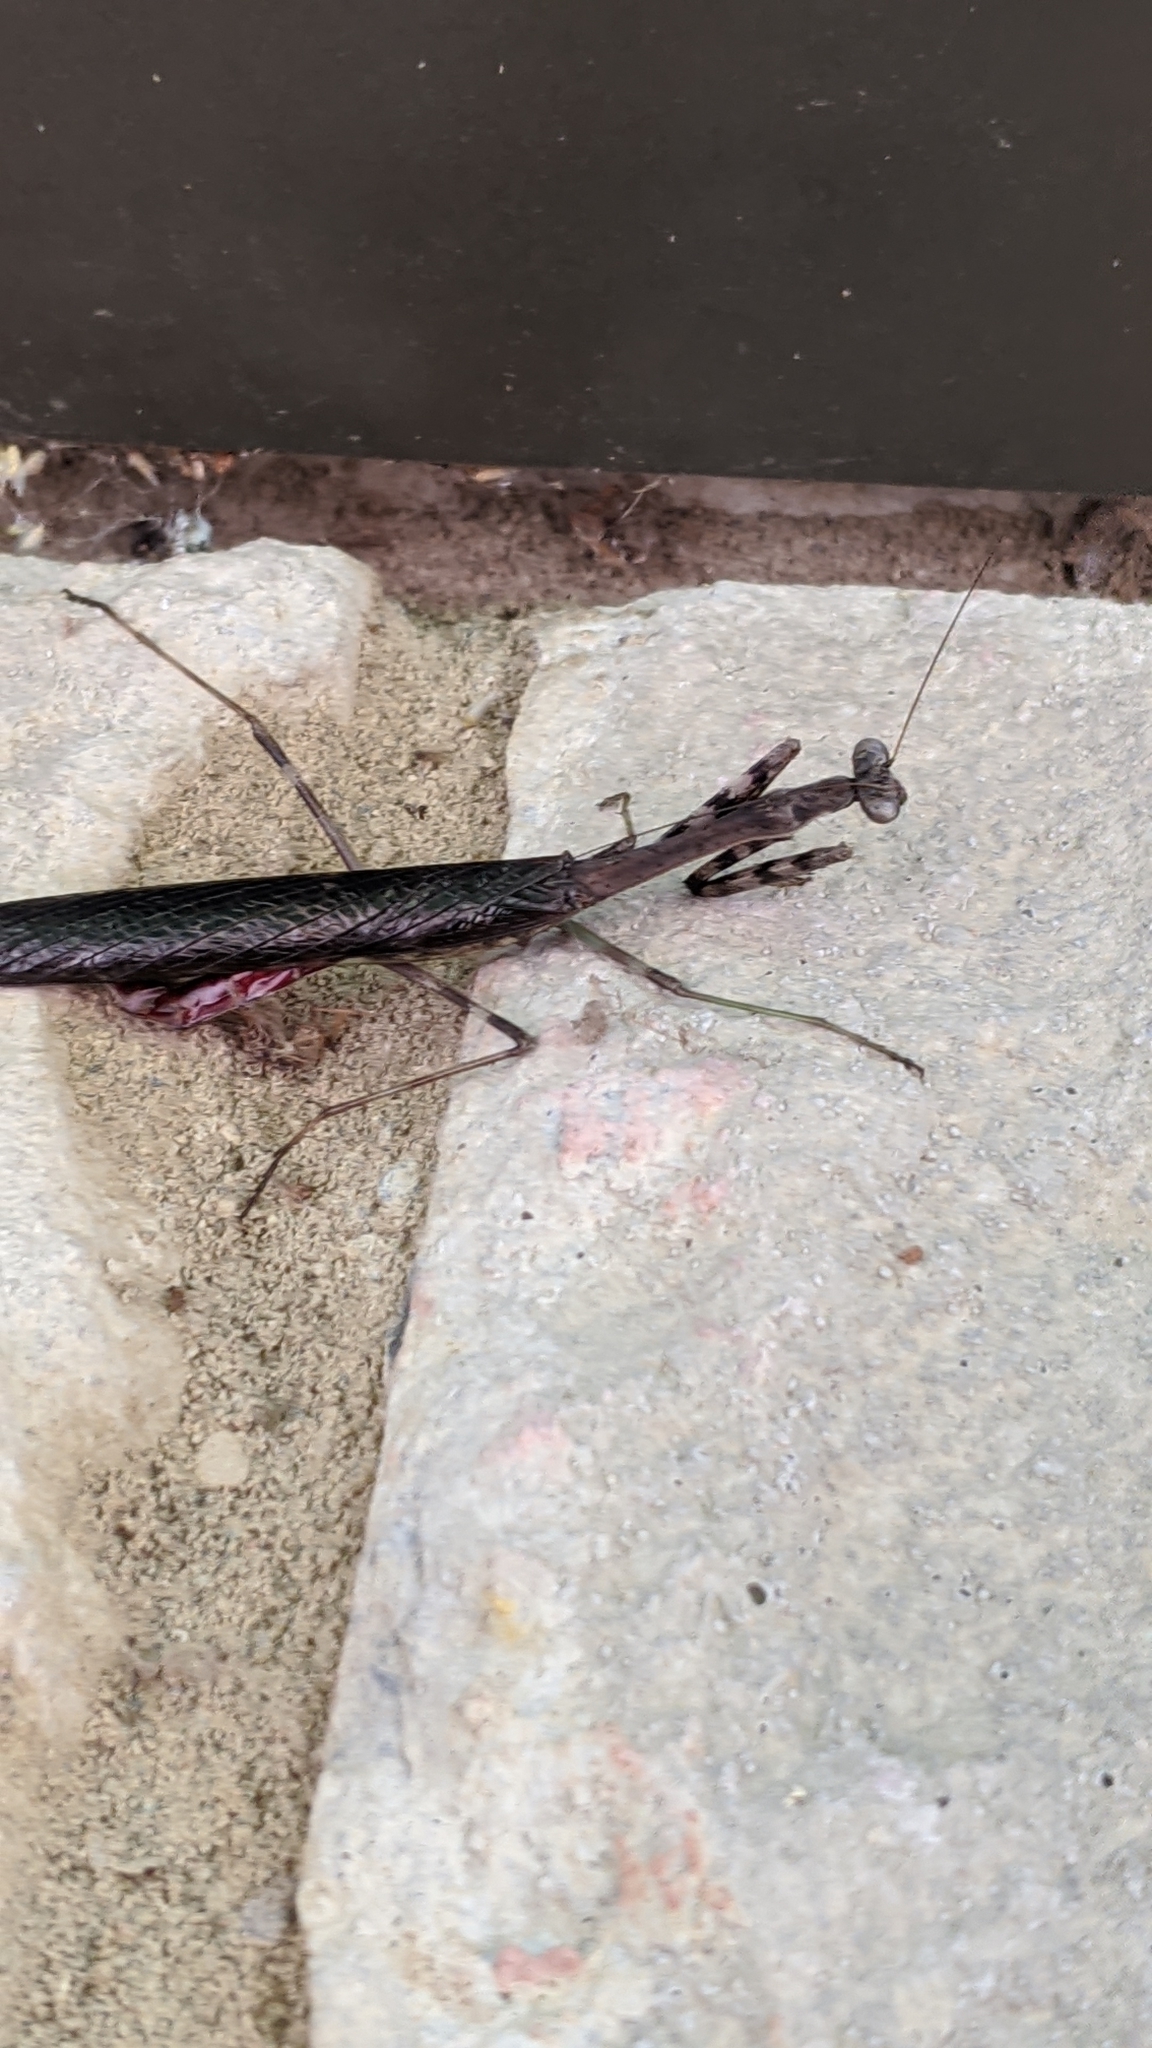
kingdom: Animalia
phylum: Arthropoda
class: Insecta
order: Mantodea
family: Mantidae
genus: Stagmomantis
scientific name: Stagmomantis carolina
